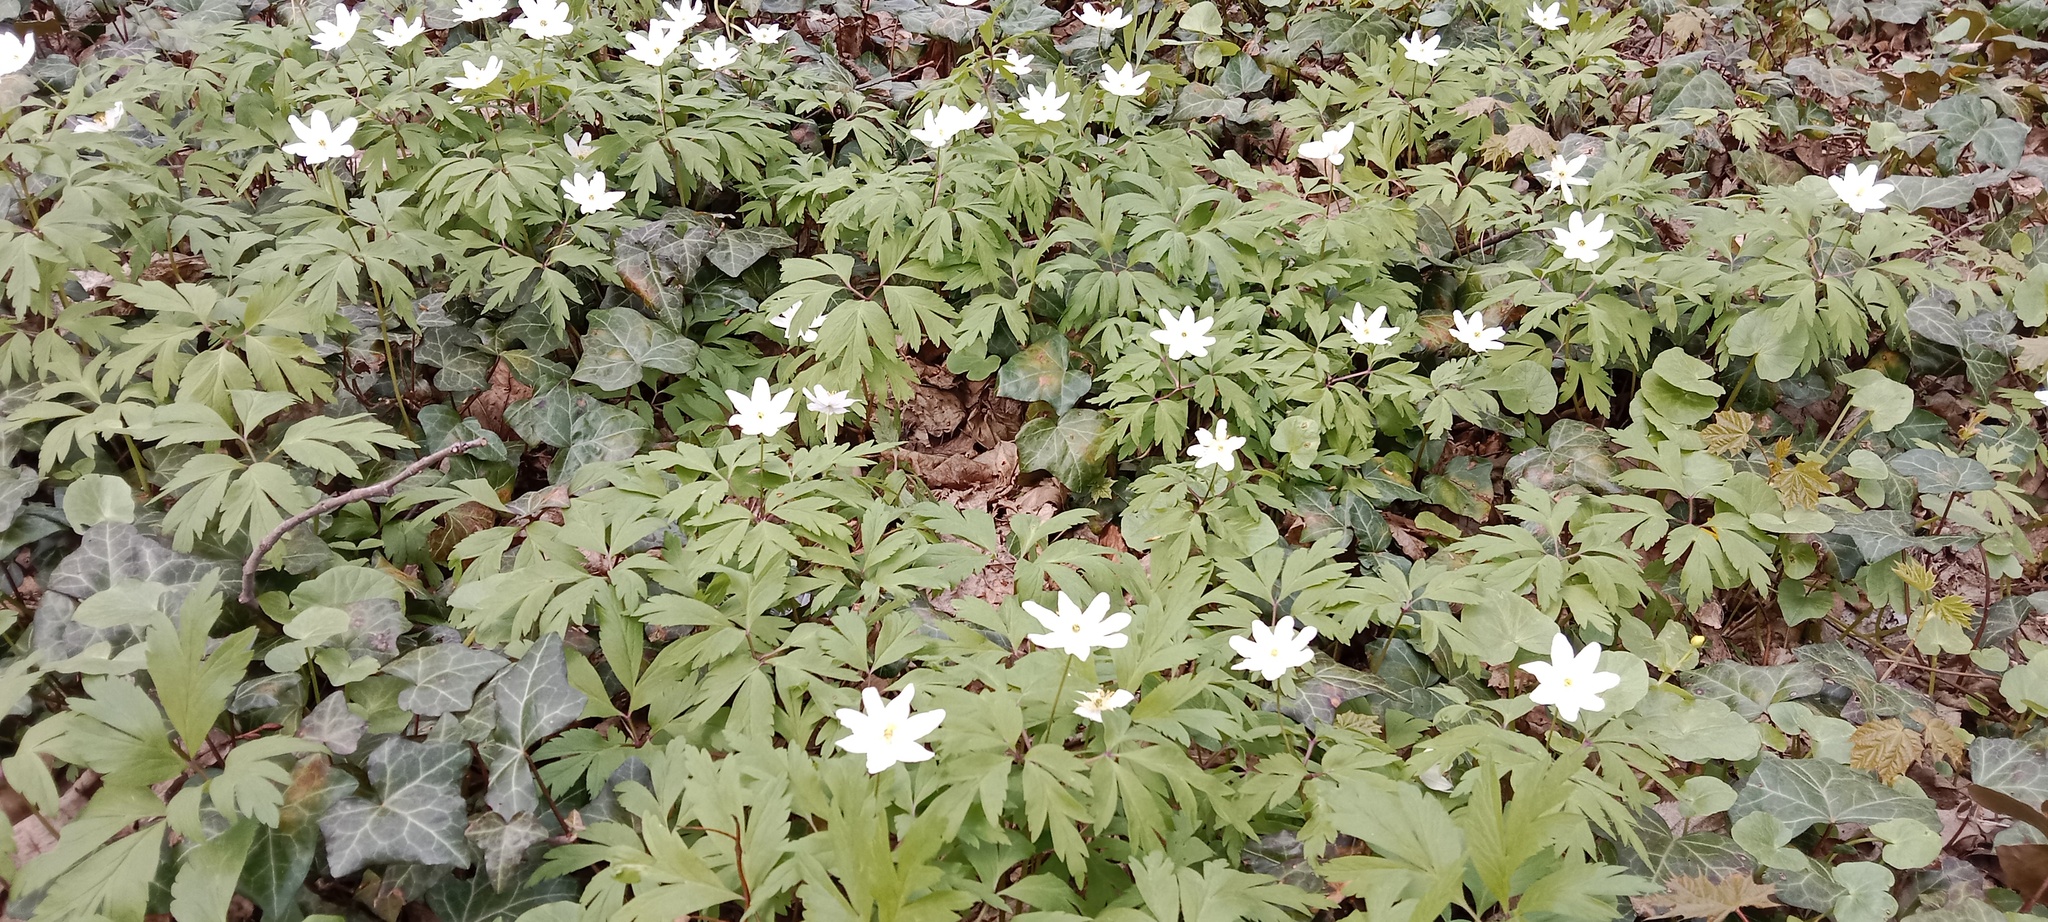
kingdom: Plantae
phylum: Tracheophyta
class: Magnoliopsida
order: Ranunculales
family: Ranunculaceae
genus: Anemone
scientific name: Anemone nemorosa
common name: Wood anemone
